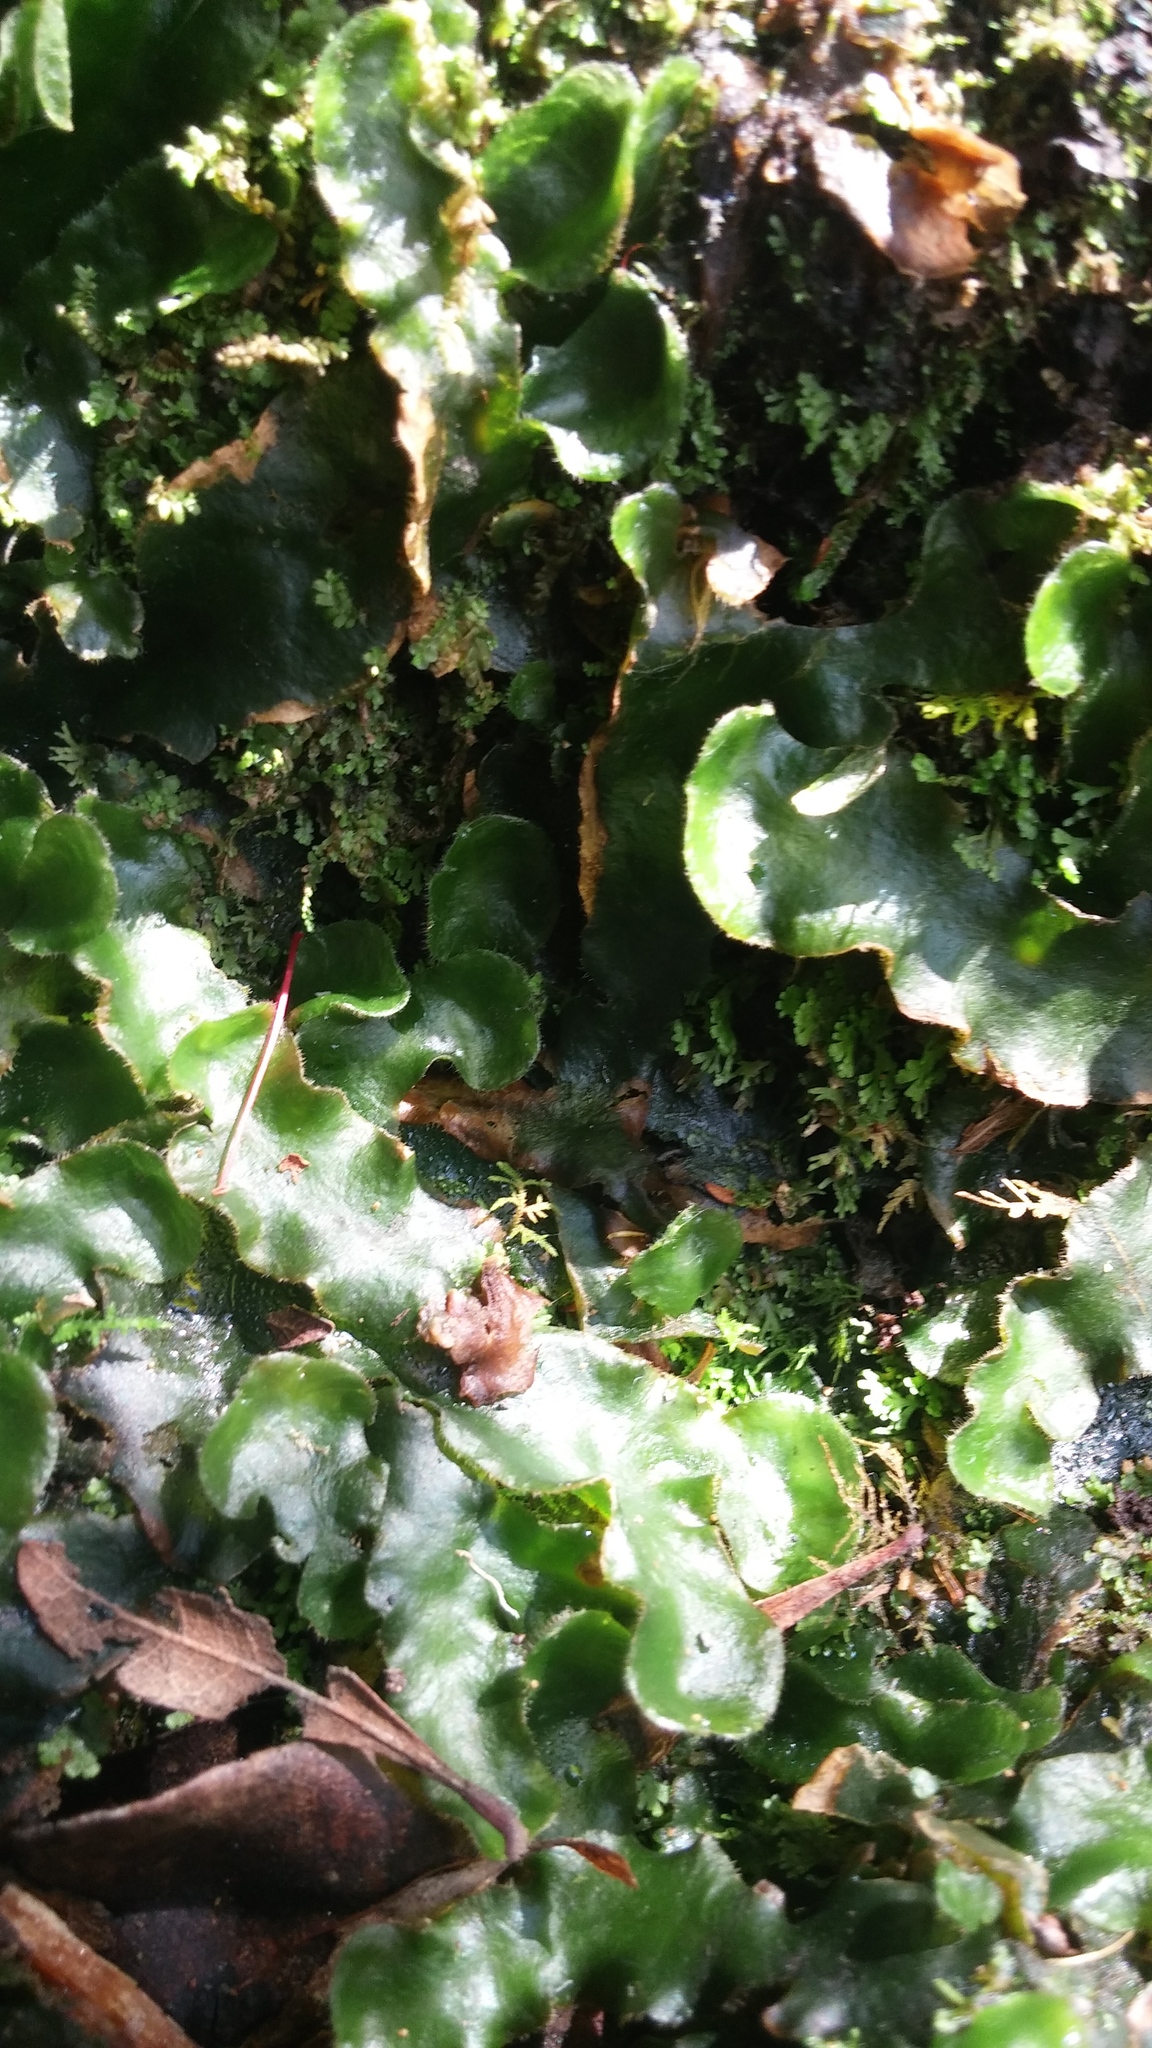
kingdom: Plantae
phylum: Marchantiophyta
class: Marchantiopsida
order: Marchantiales
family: Dumortieraceae
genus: Dumortiera
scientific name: Dumortiera hirsuta
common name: Dumortier's liverwort
